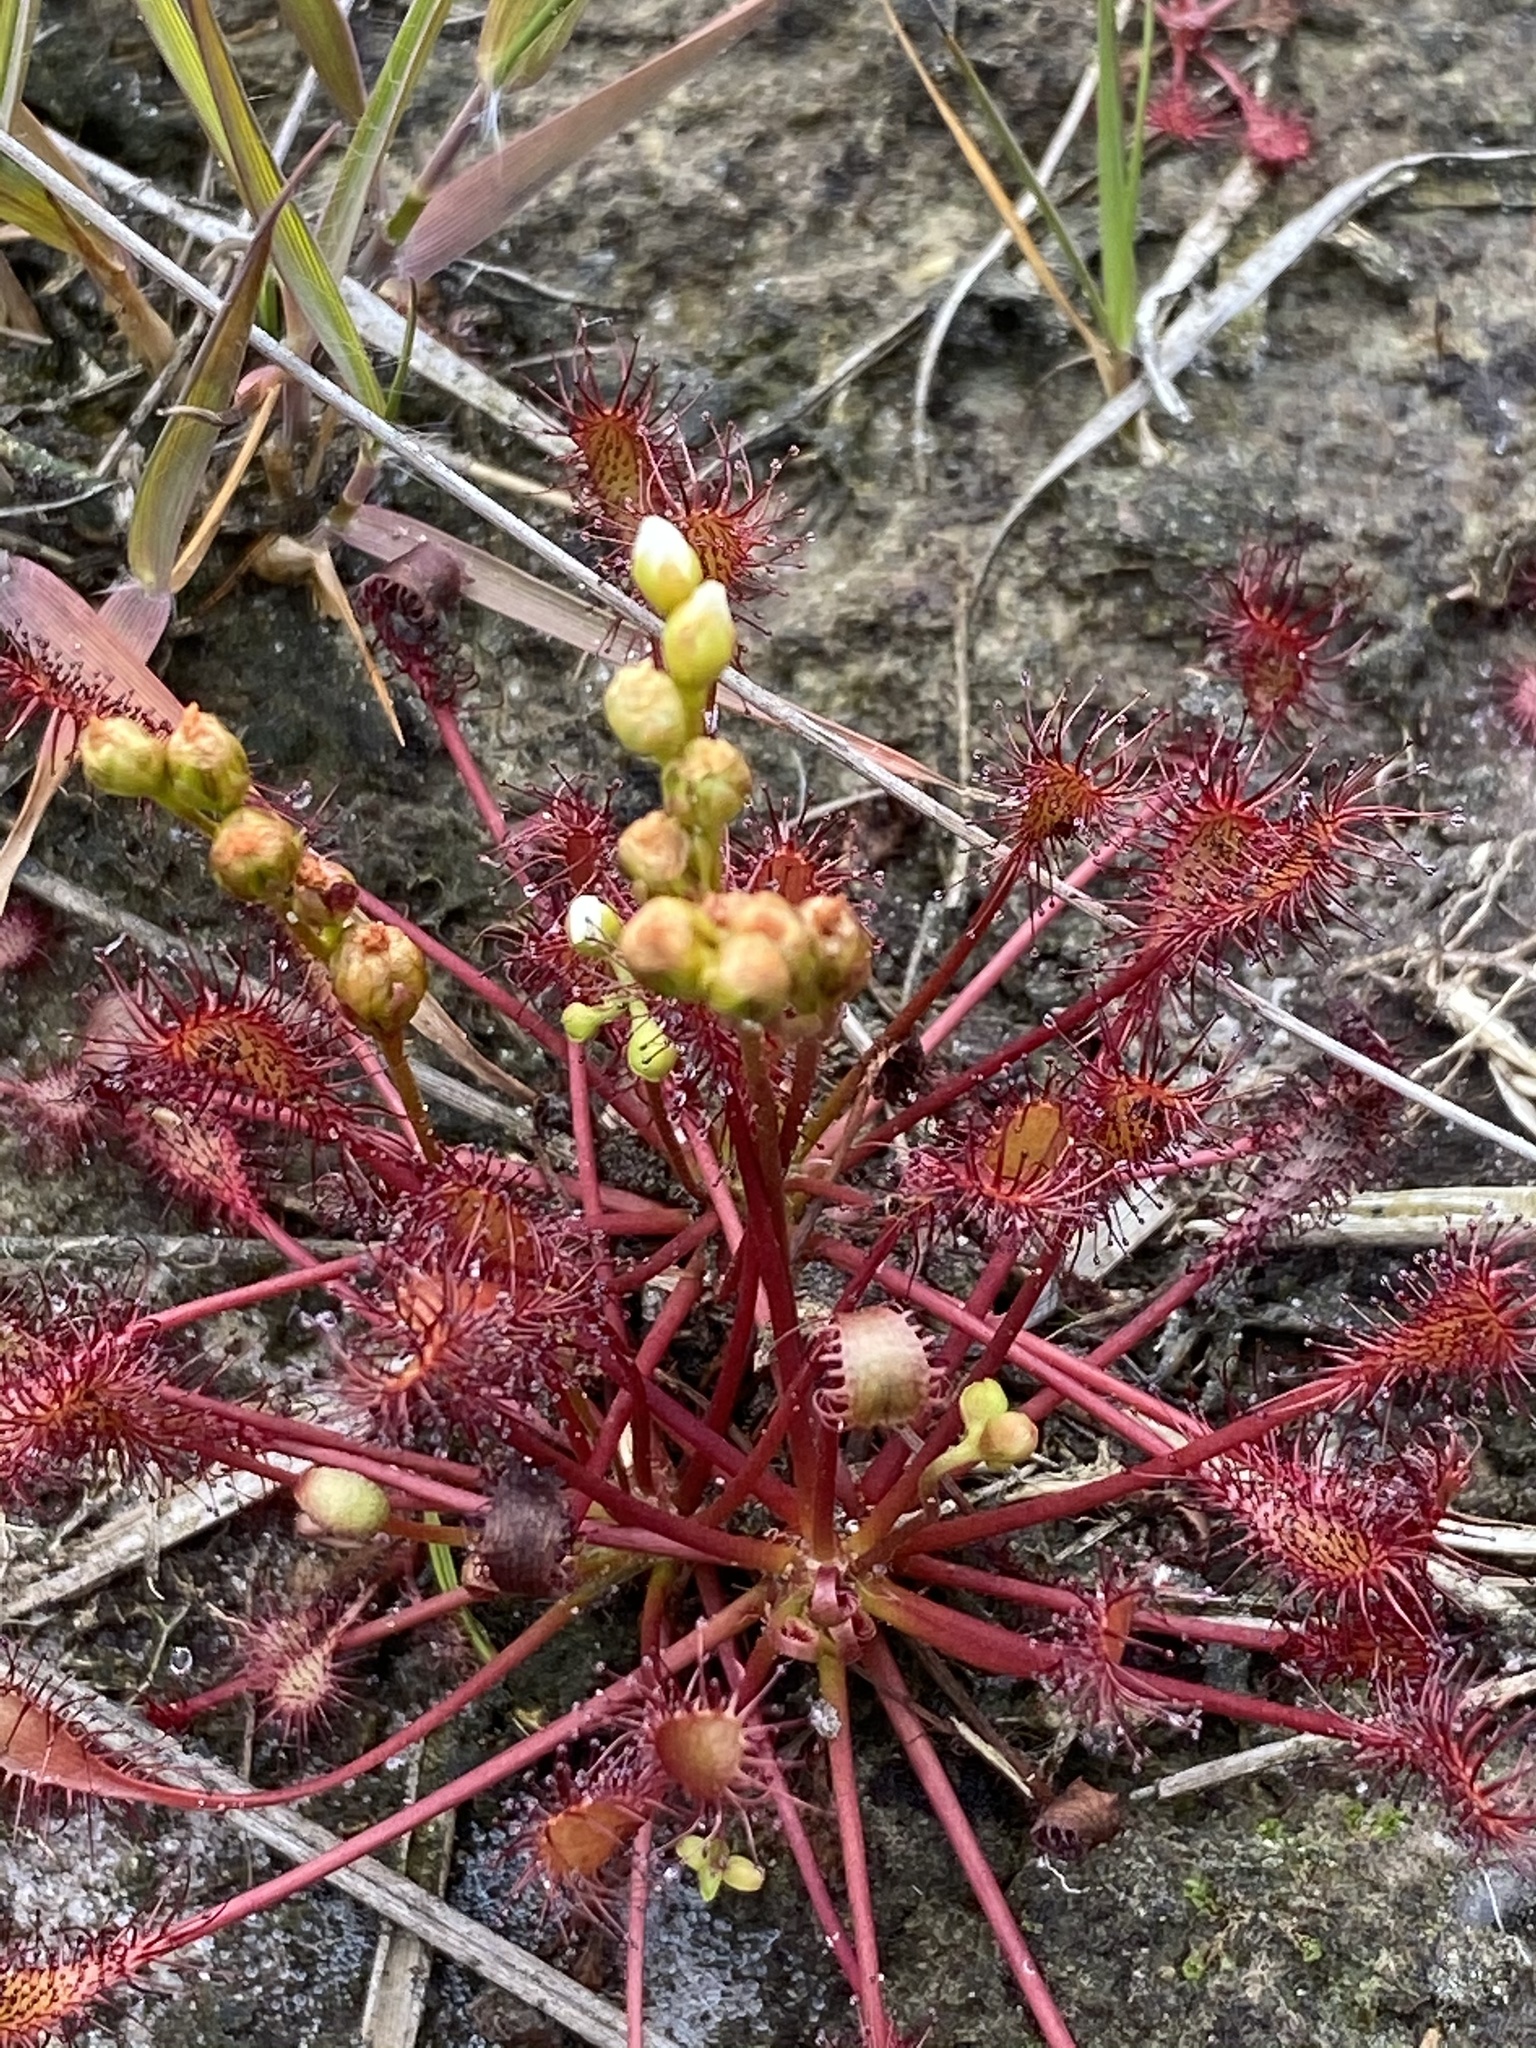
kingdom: Plantae
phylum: Tracheophyta
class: Magnoliopsida
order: Caryophyllales
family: Droseraceae
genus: Drosera
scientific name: Drosera intermedia
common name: Oblong-leaved sundew
